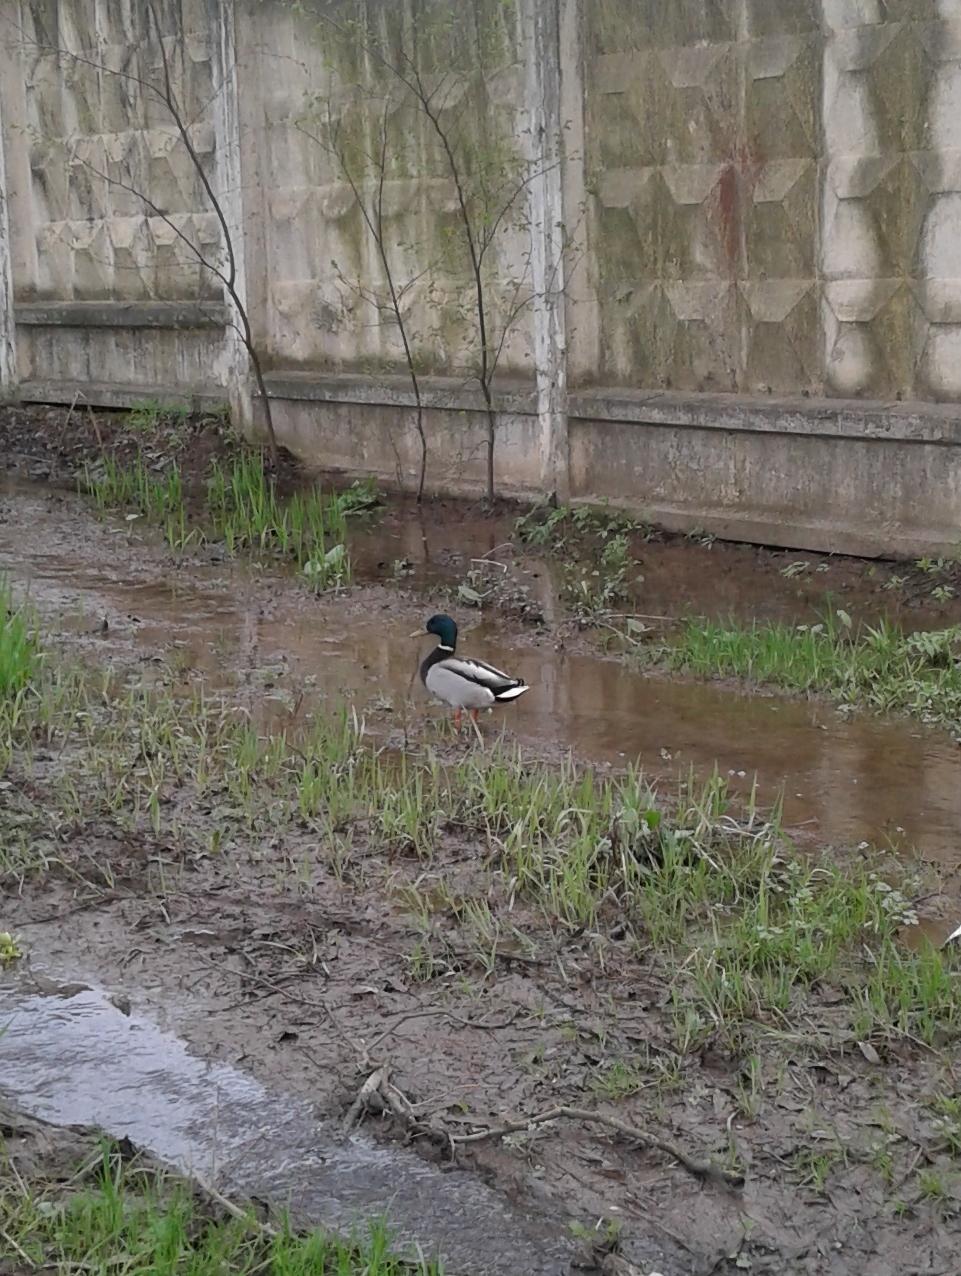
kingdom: Animalia
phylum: Chordata
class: Aves
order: Anseriformes
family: Anatidae
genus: Anas
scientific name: Anas platyrhynchos
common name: Mallard
